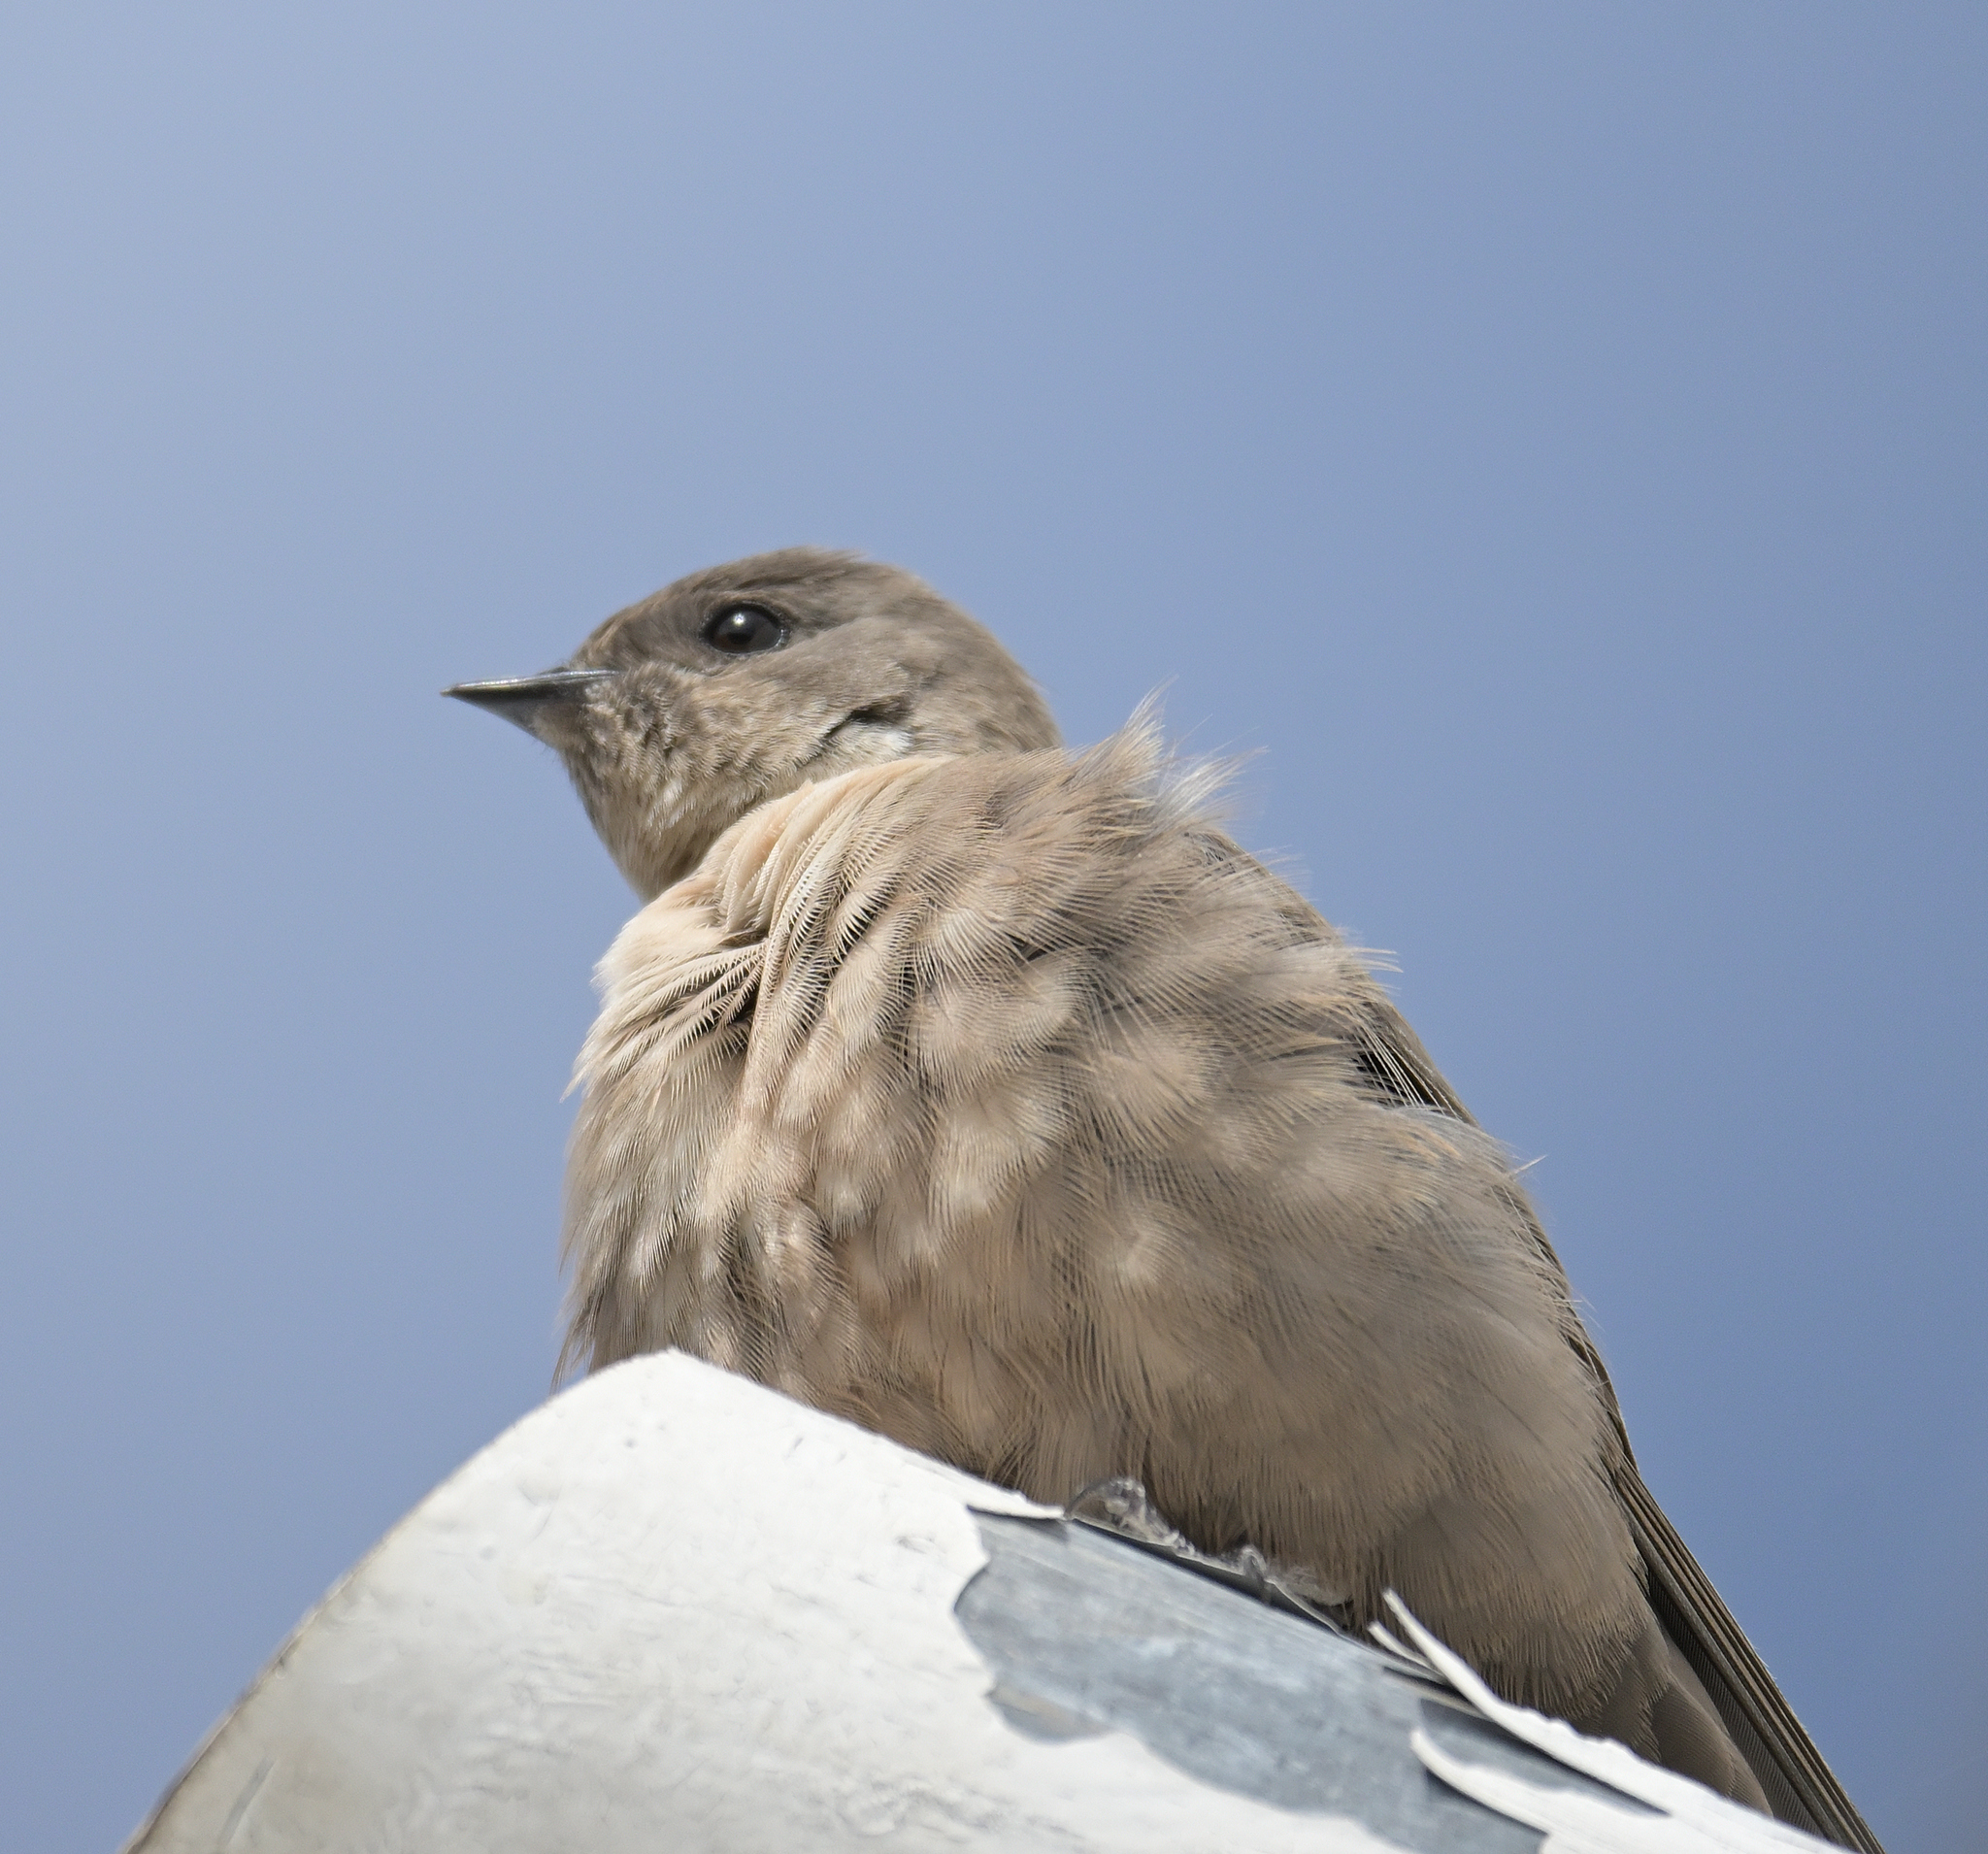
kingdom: Animalia
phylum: Chordata
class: Aves
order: Passeriformes
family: Hirundinidae
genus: Ptyonoprogne
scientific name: Ptyonoprogne rupestris
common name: Eurasian crag martin
